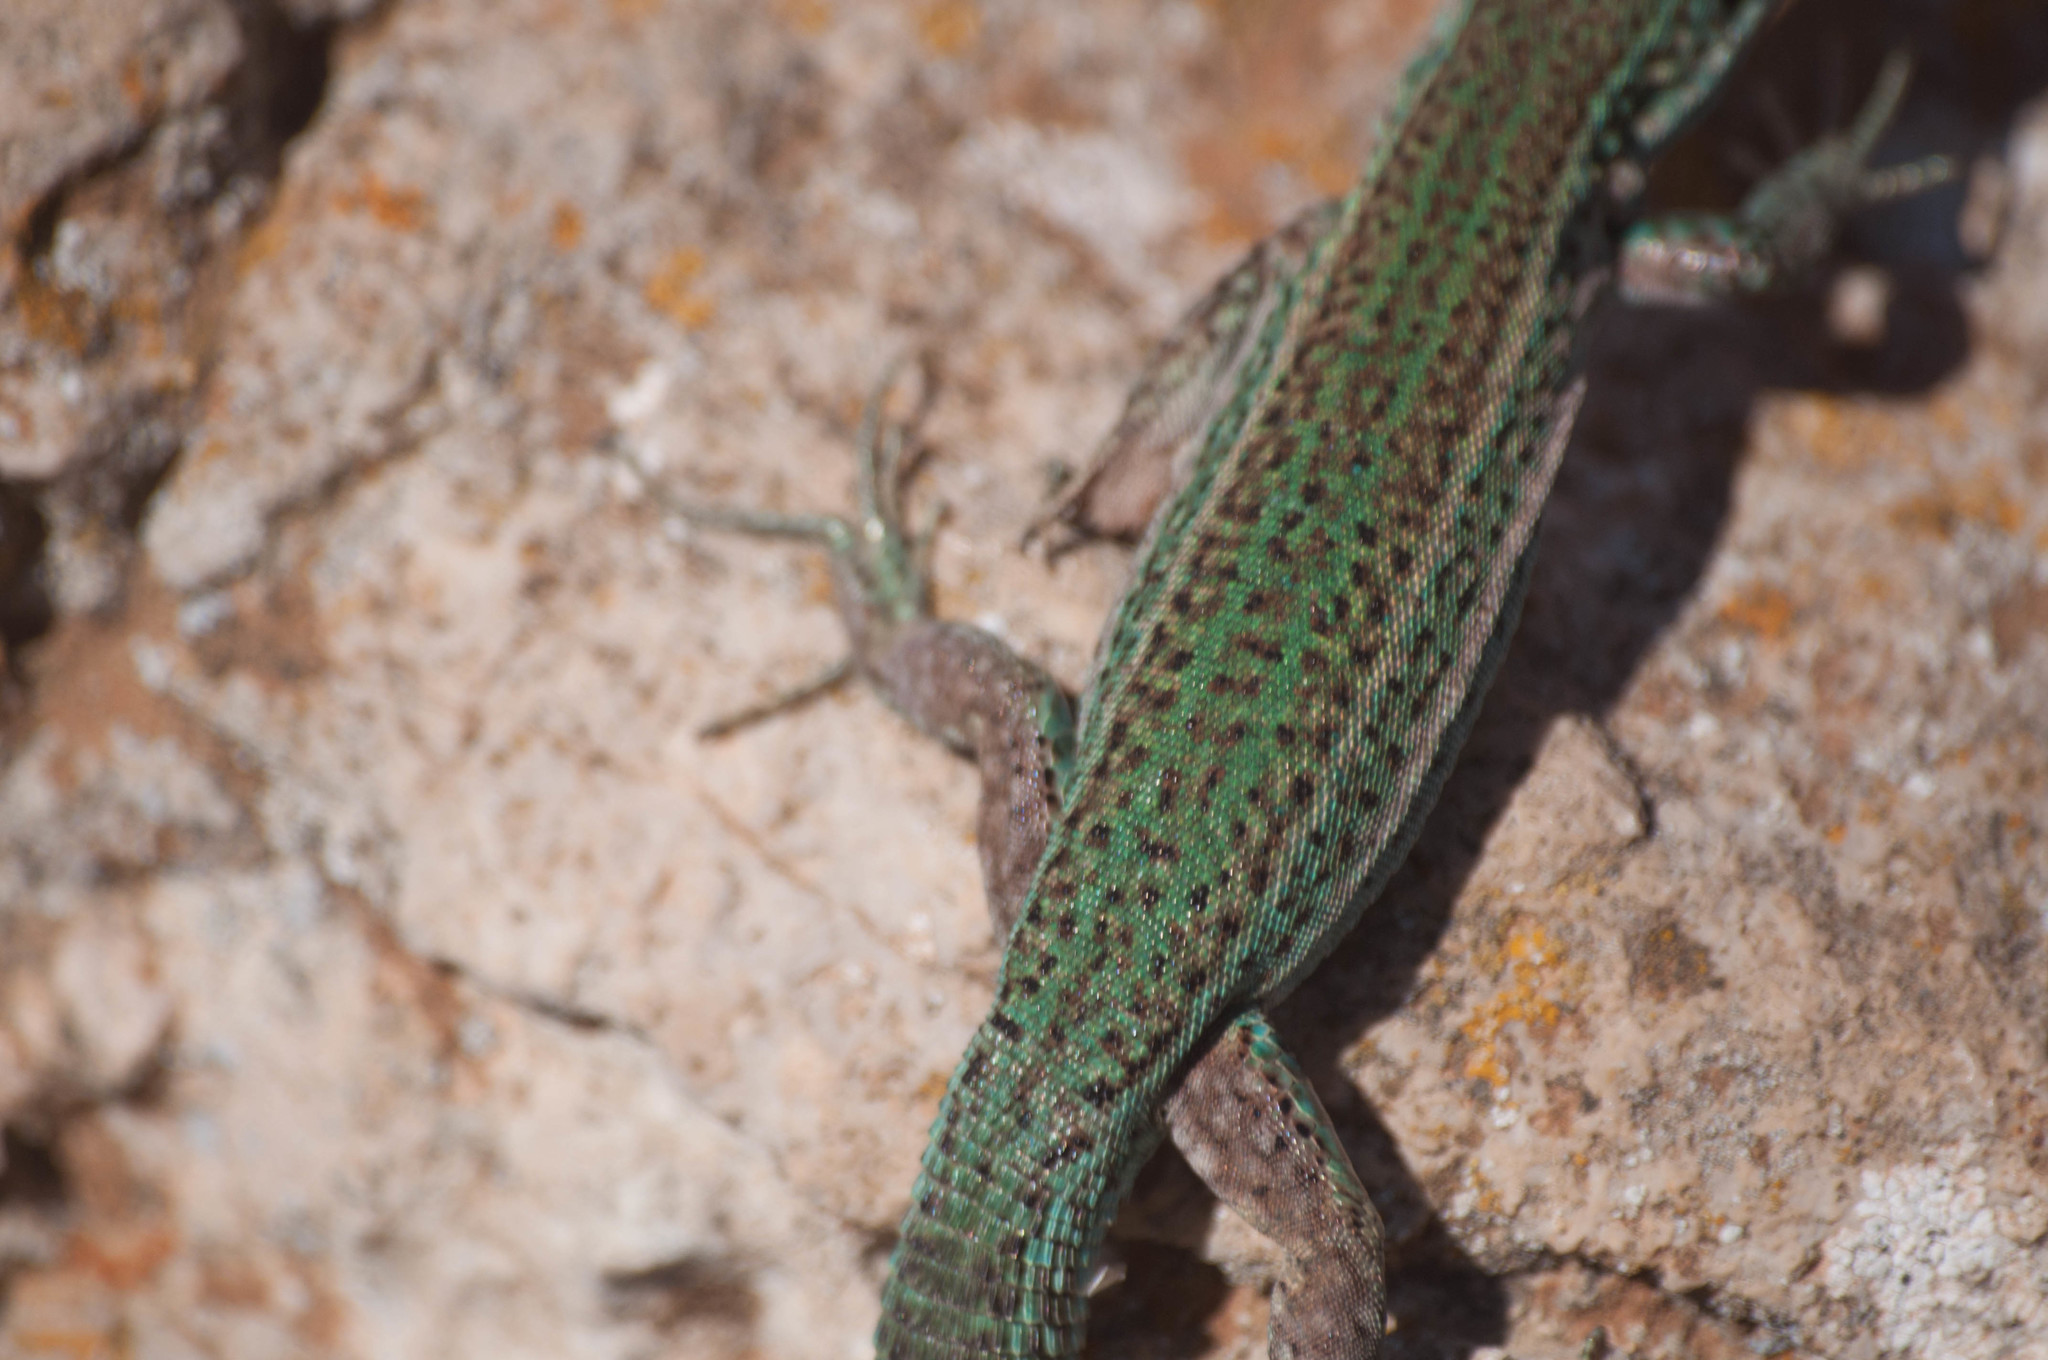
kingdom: Animalia
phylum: Chordata
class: Squamata
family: Lacertidae
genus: Podarcis
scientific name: Podarcis pityusensis
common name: Ibiza wall lizard
